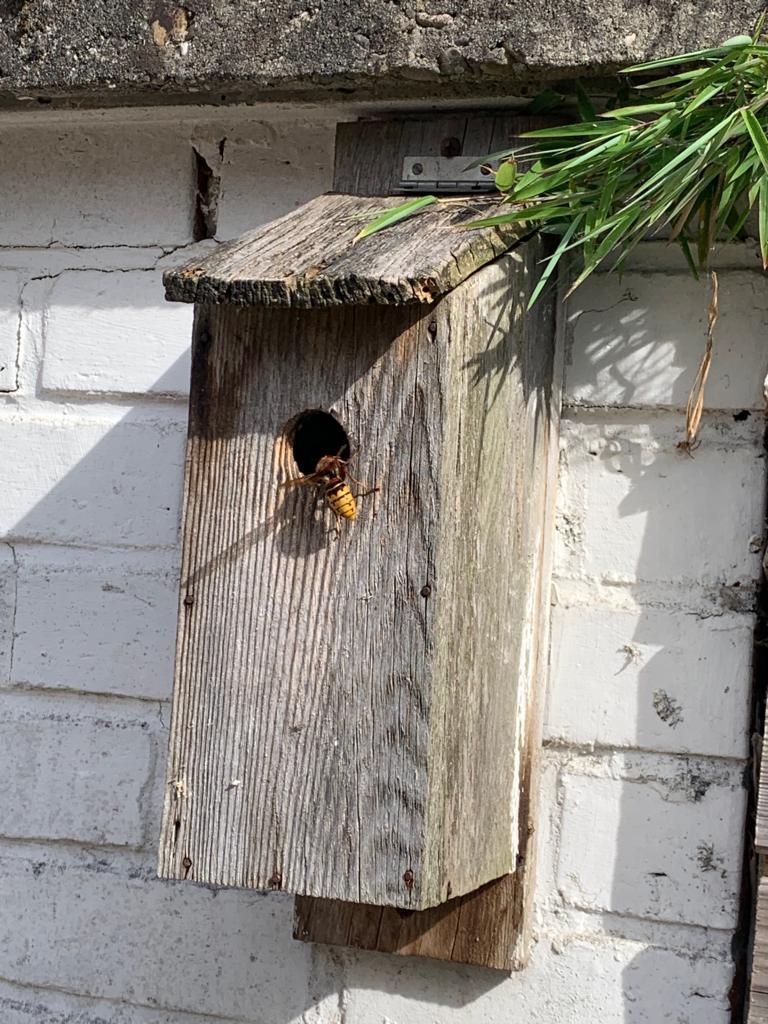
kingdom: Animalia
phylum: Arthropoda
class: Insecta
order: Hymenoptera
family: Vespidae
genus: Vespa
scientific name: Vespa crabro
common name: Hornet
